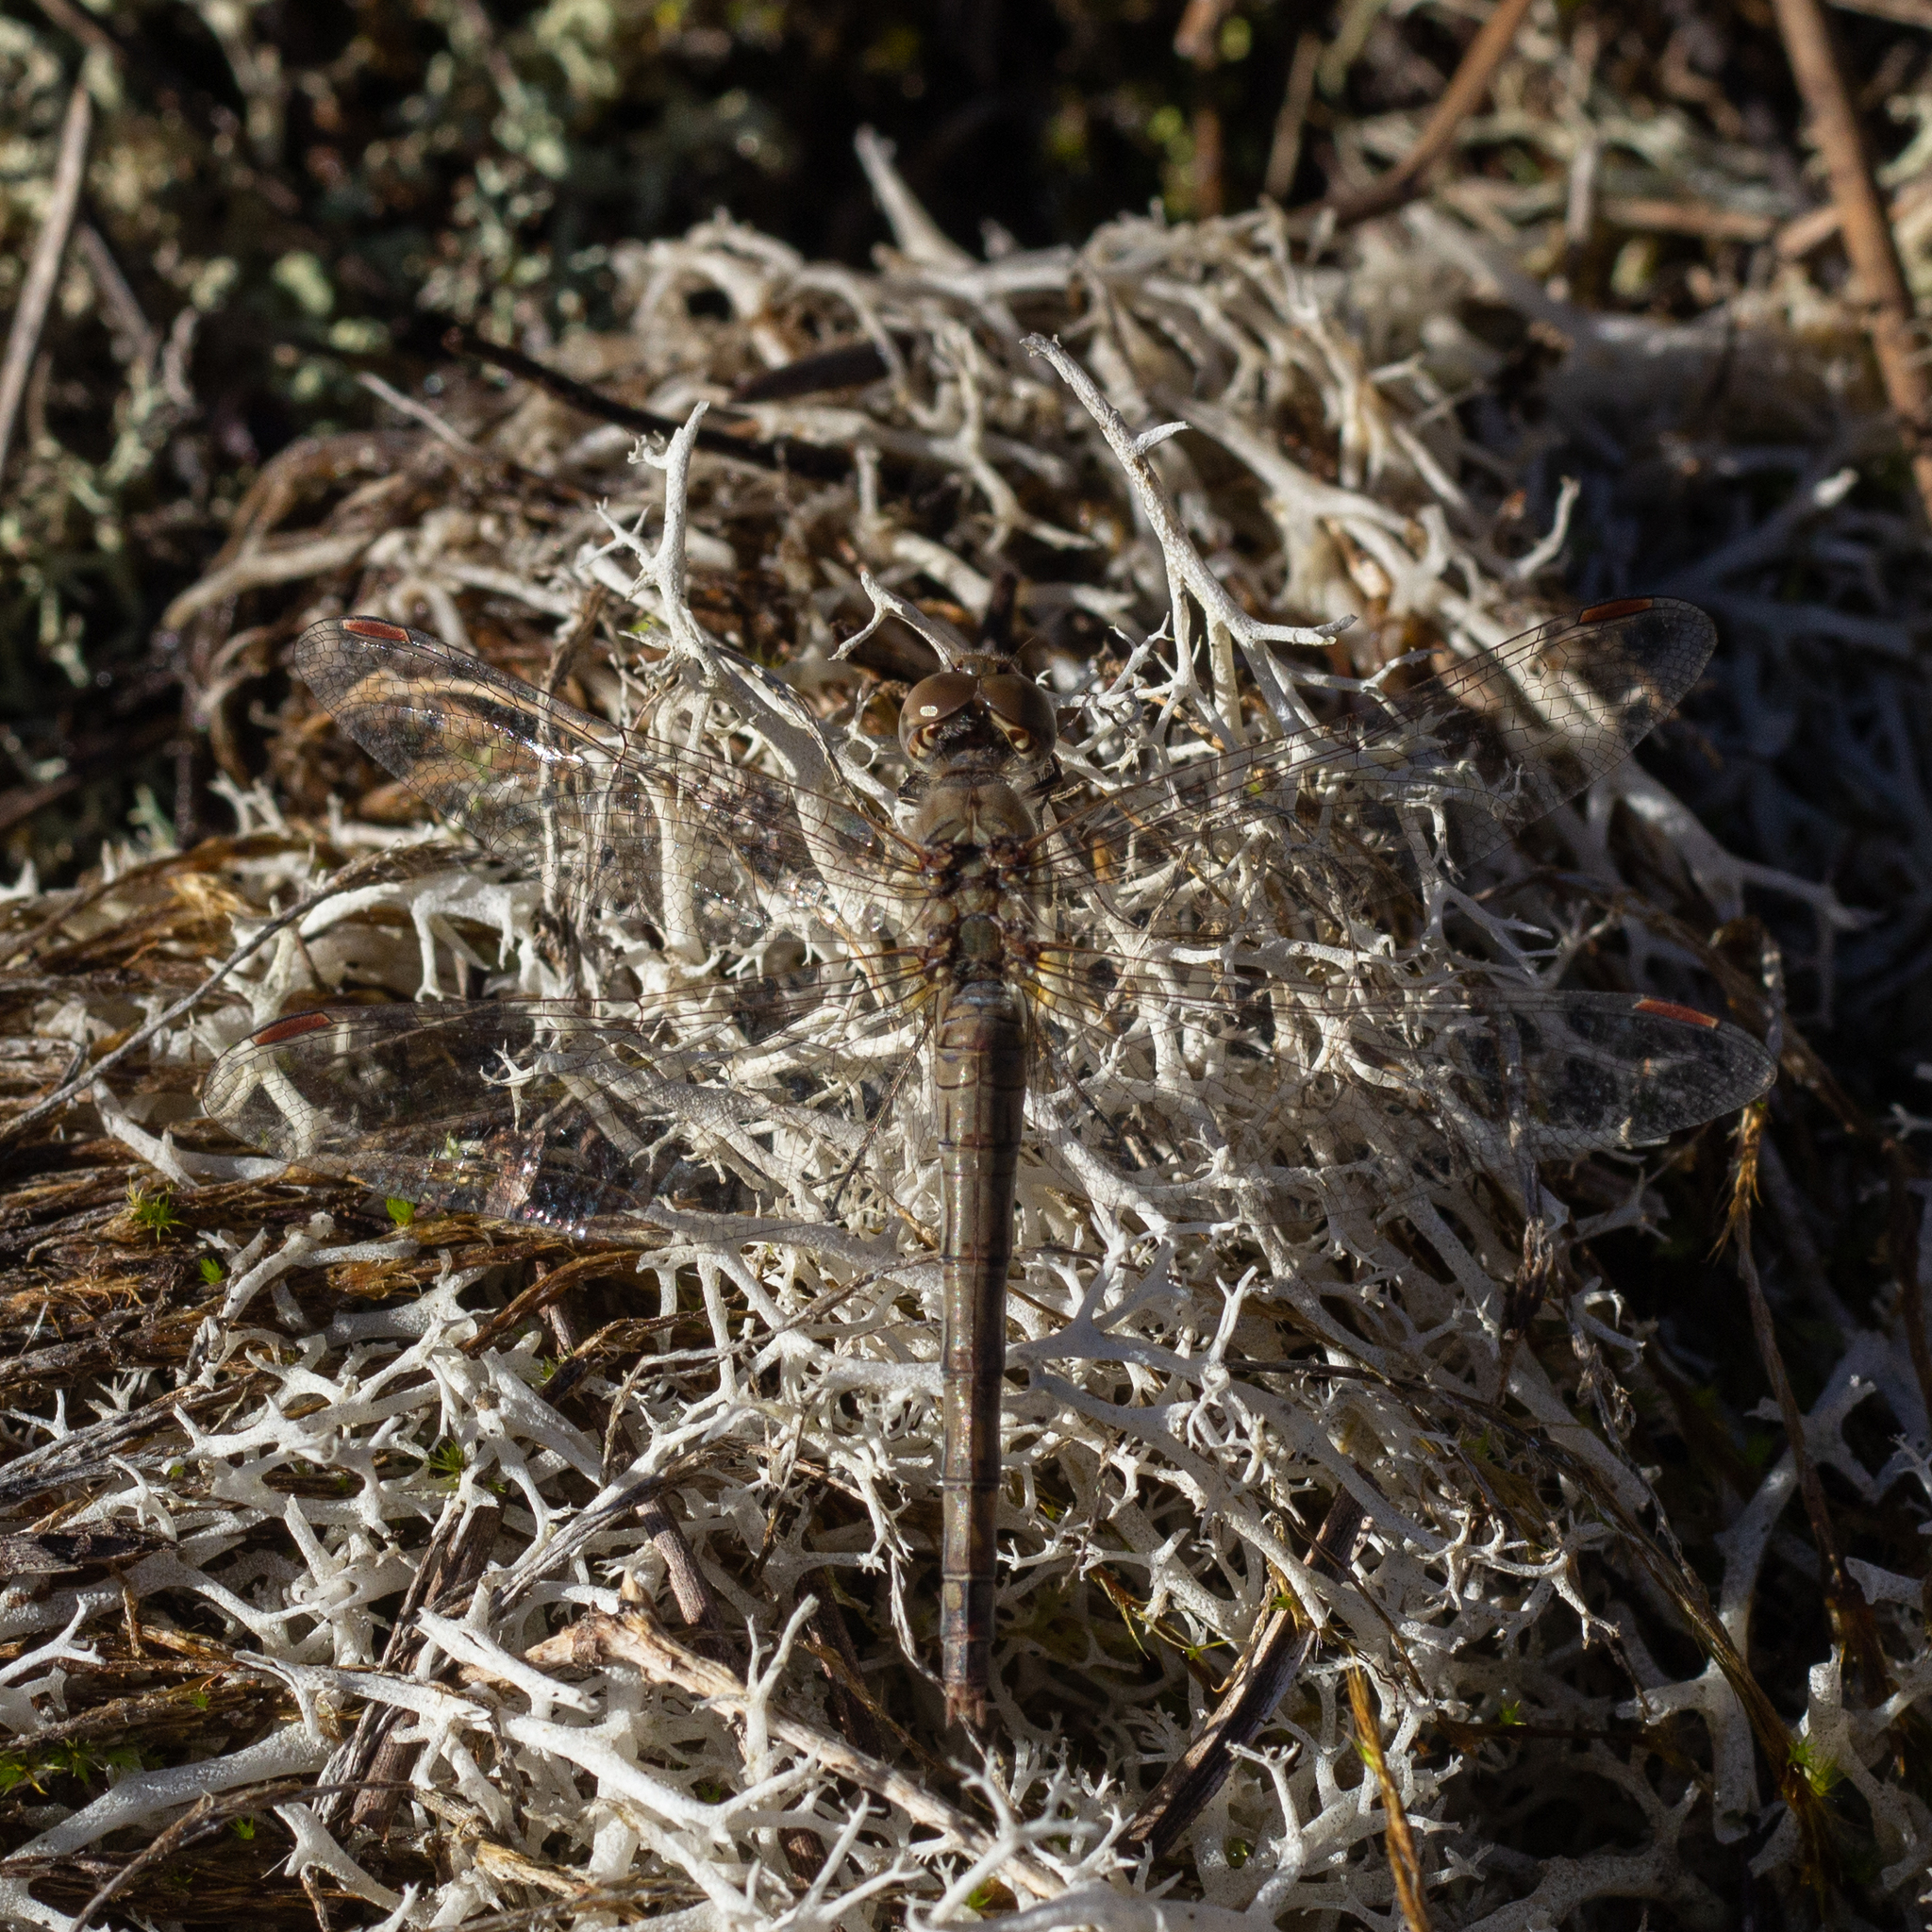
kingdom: Animalia
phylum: Arthropoda
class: Insecta
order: Odonata
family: Libellulidae
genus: Sympetrum
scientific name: Sympetrum striolatum
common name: Common darter
